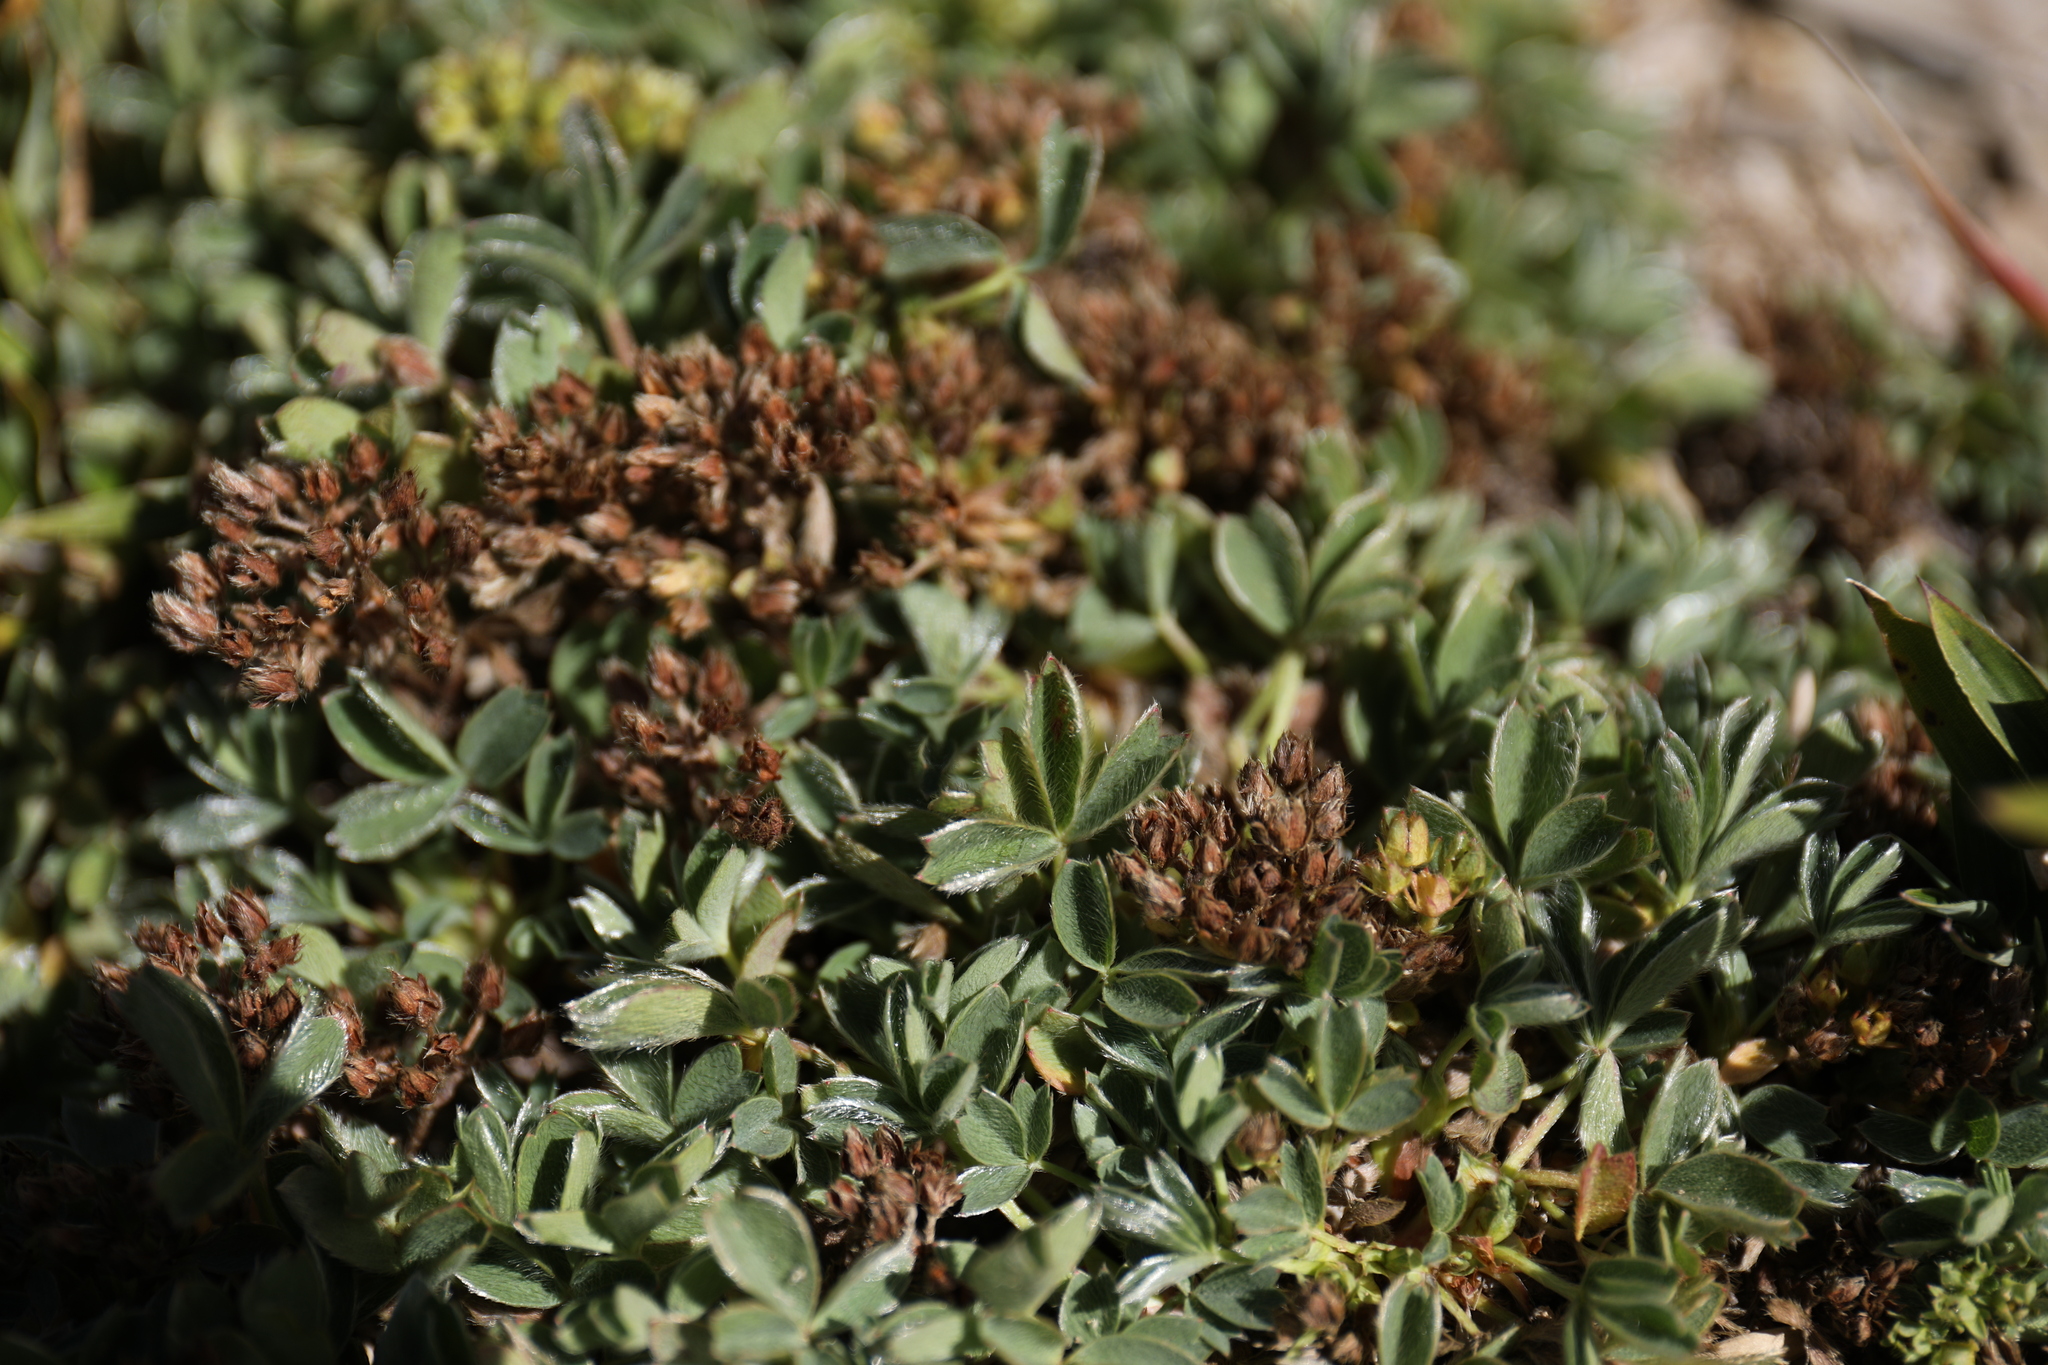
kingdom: Plantae
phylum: Tracheophyta
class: Magnoliopsida
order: Rosales
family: Rosaceae
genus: Sibbaldia
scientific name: Sibbaldia procumbens
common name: Creeping sibbaldia
